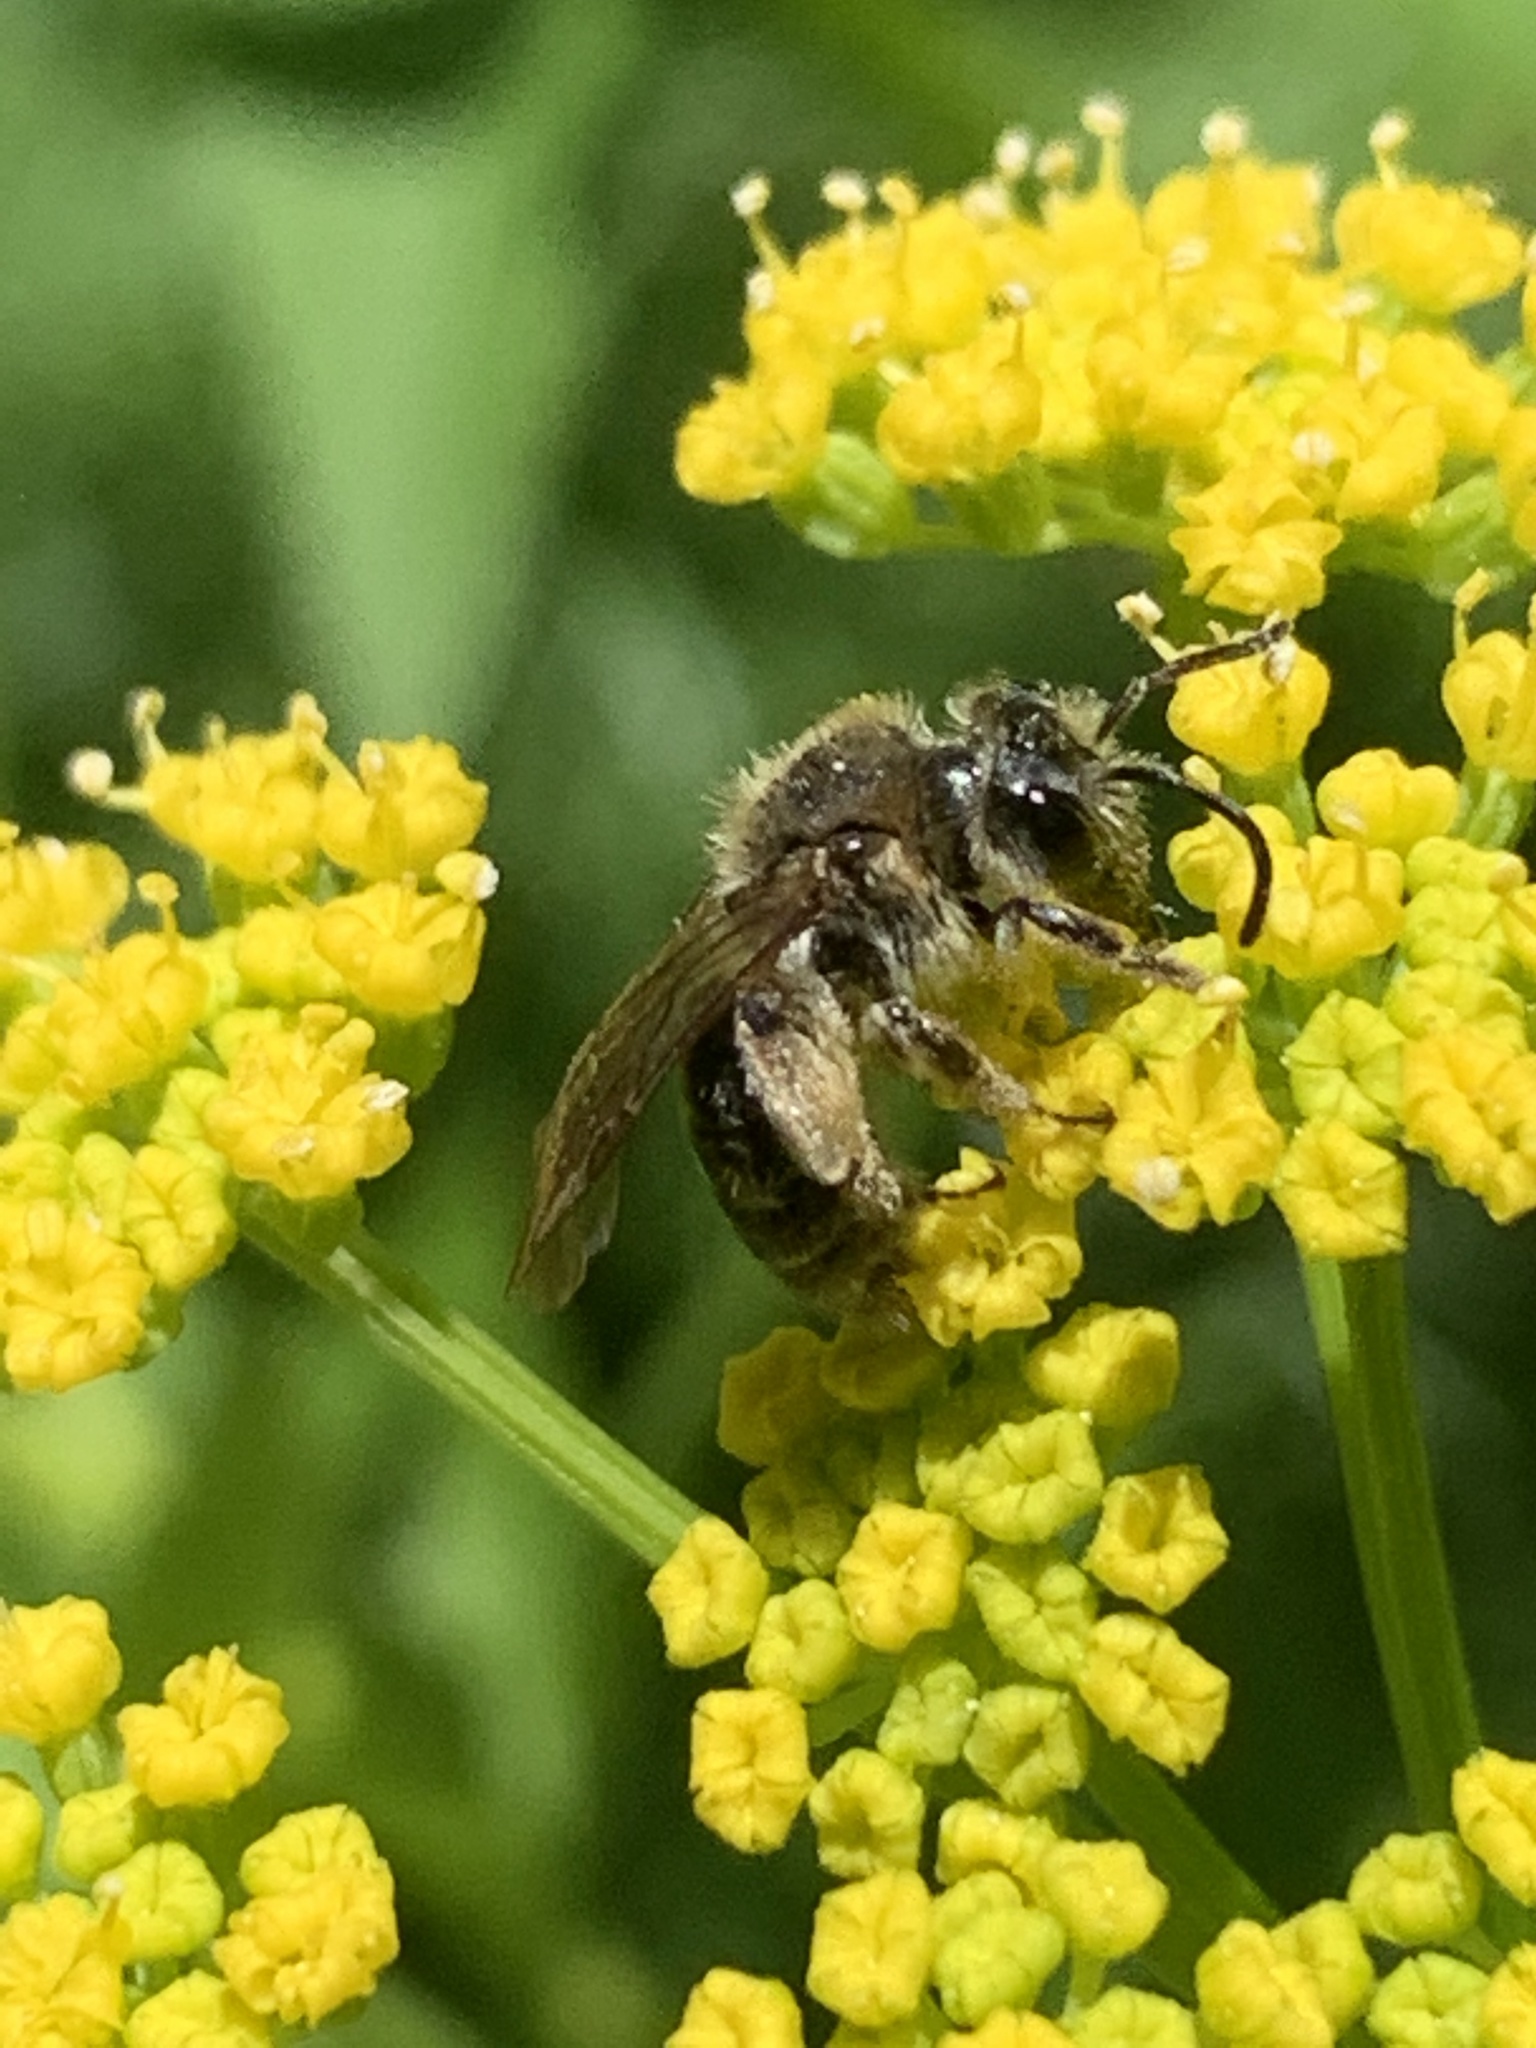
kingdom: Animalia
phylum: Arthropoda
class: Insecta
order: Hymenoptera
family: Andrenidae
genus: Andrena
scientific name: Andrena
